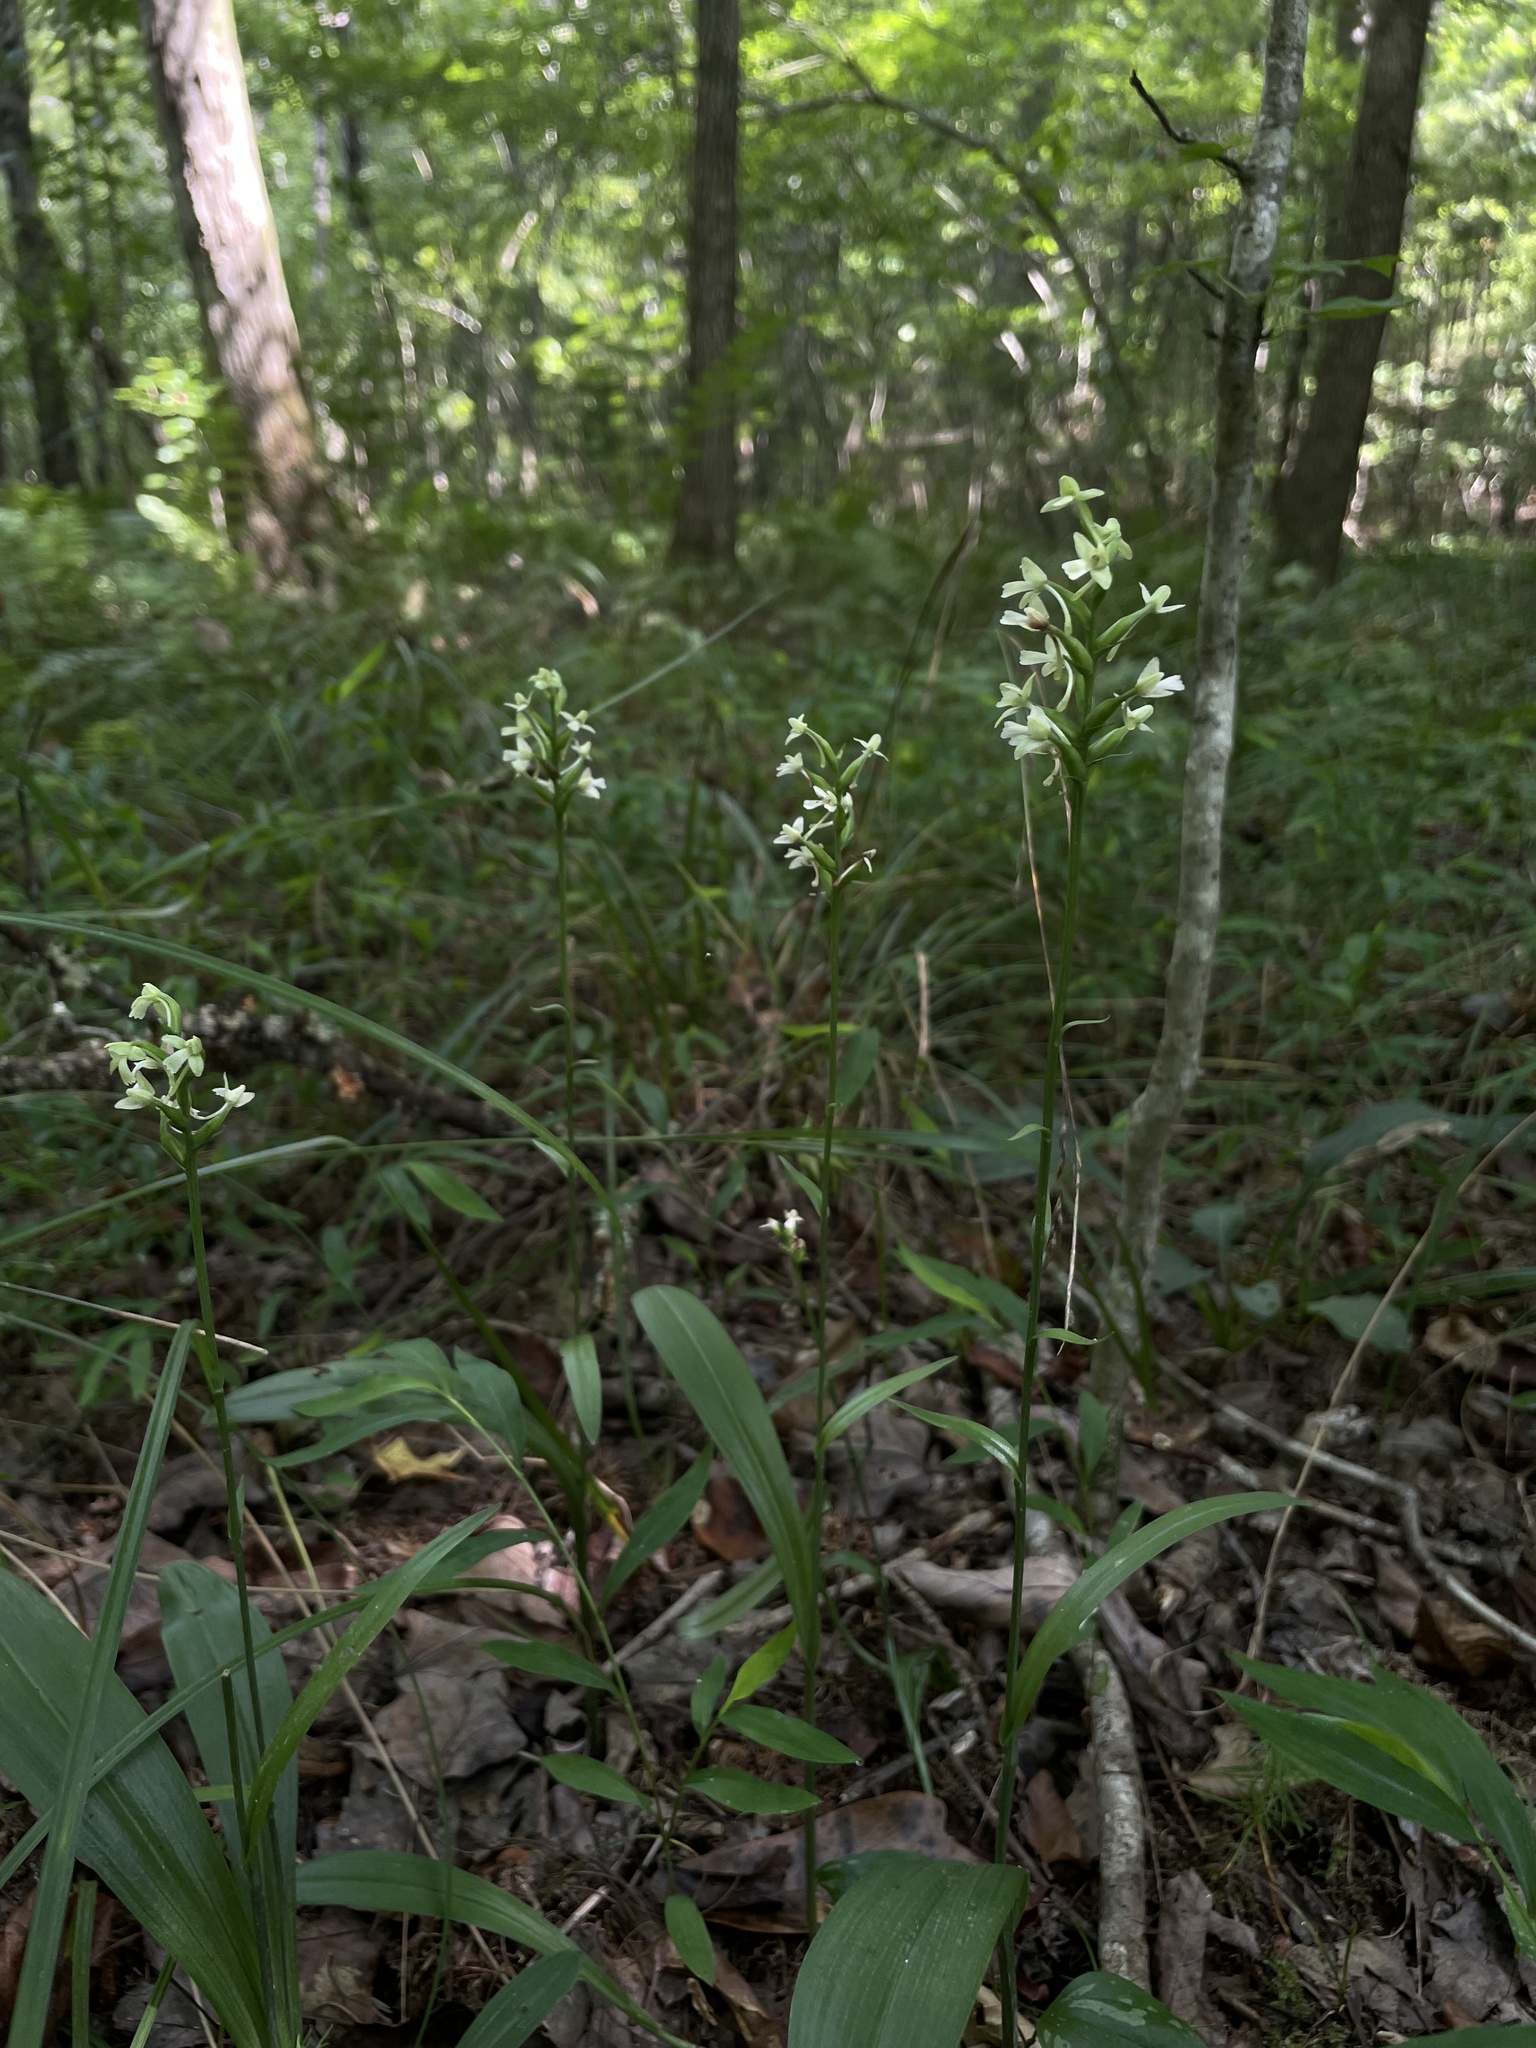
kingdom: Plantae
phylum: Tracheophyta
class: Liliopsida
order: Asparagales
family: Orchidaceae
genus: Platanthera
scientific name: Platanthera clavellata
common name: Club-spur orchid
